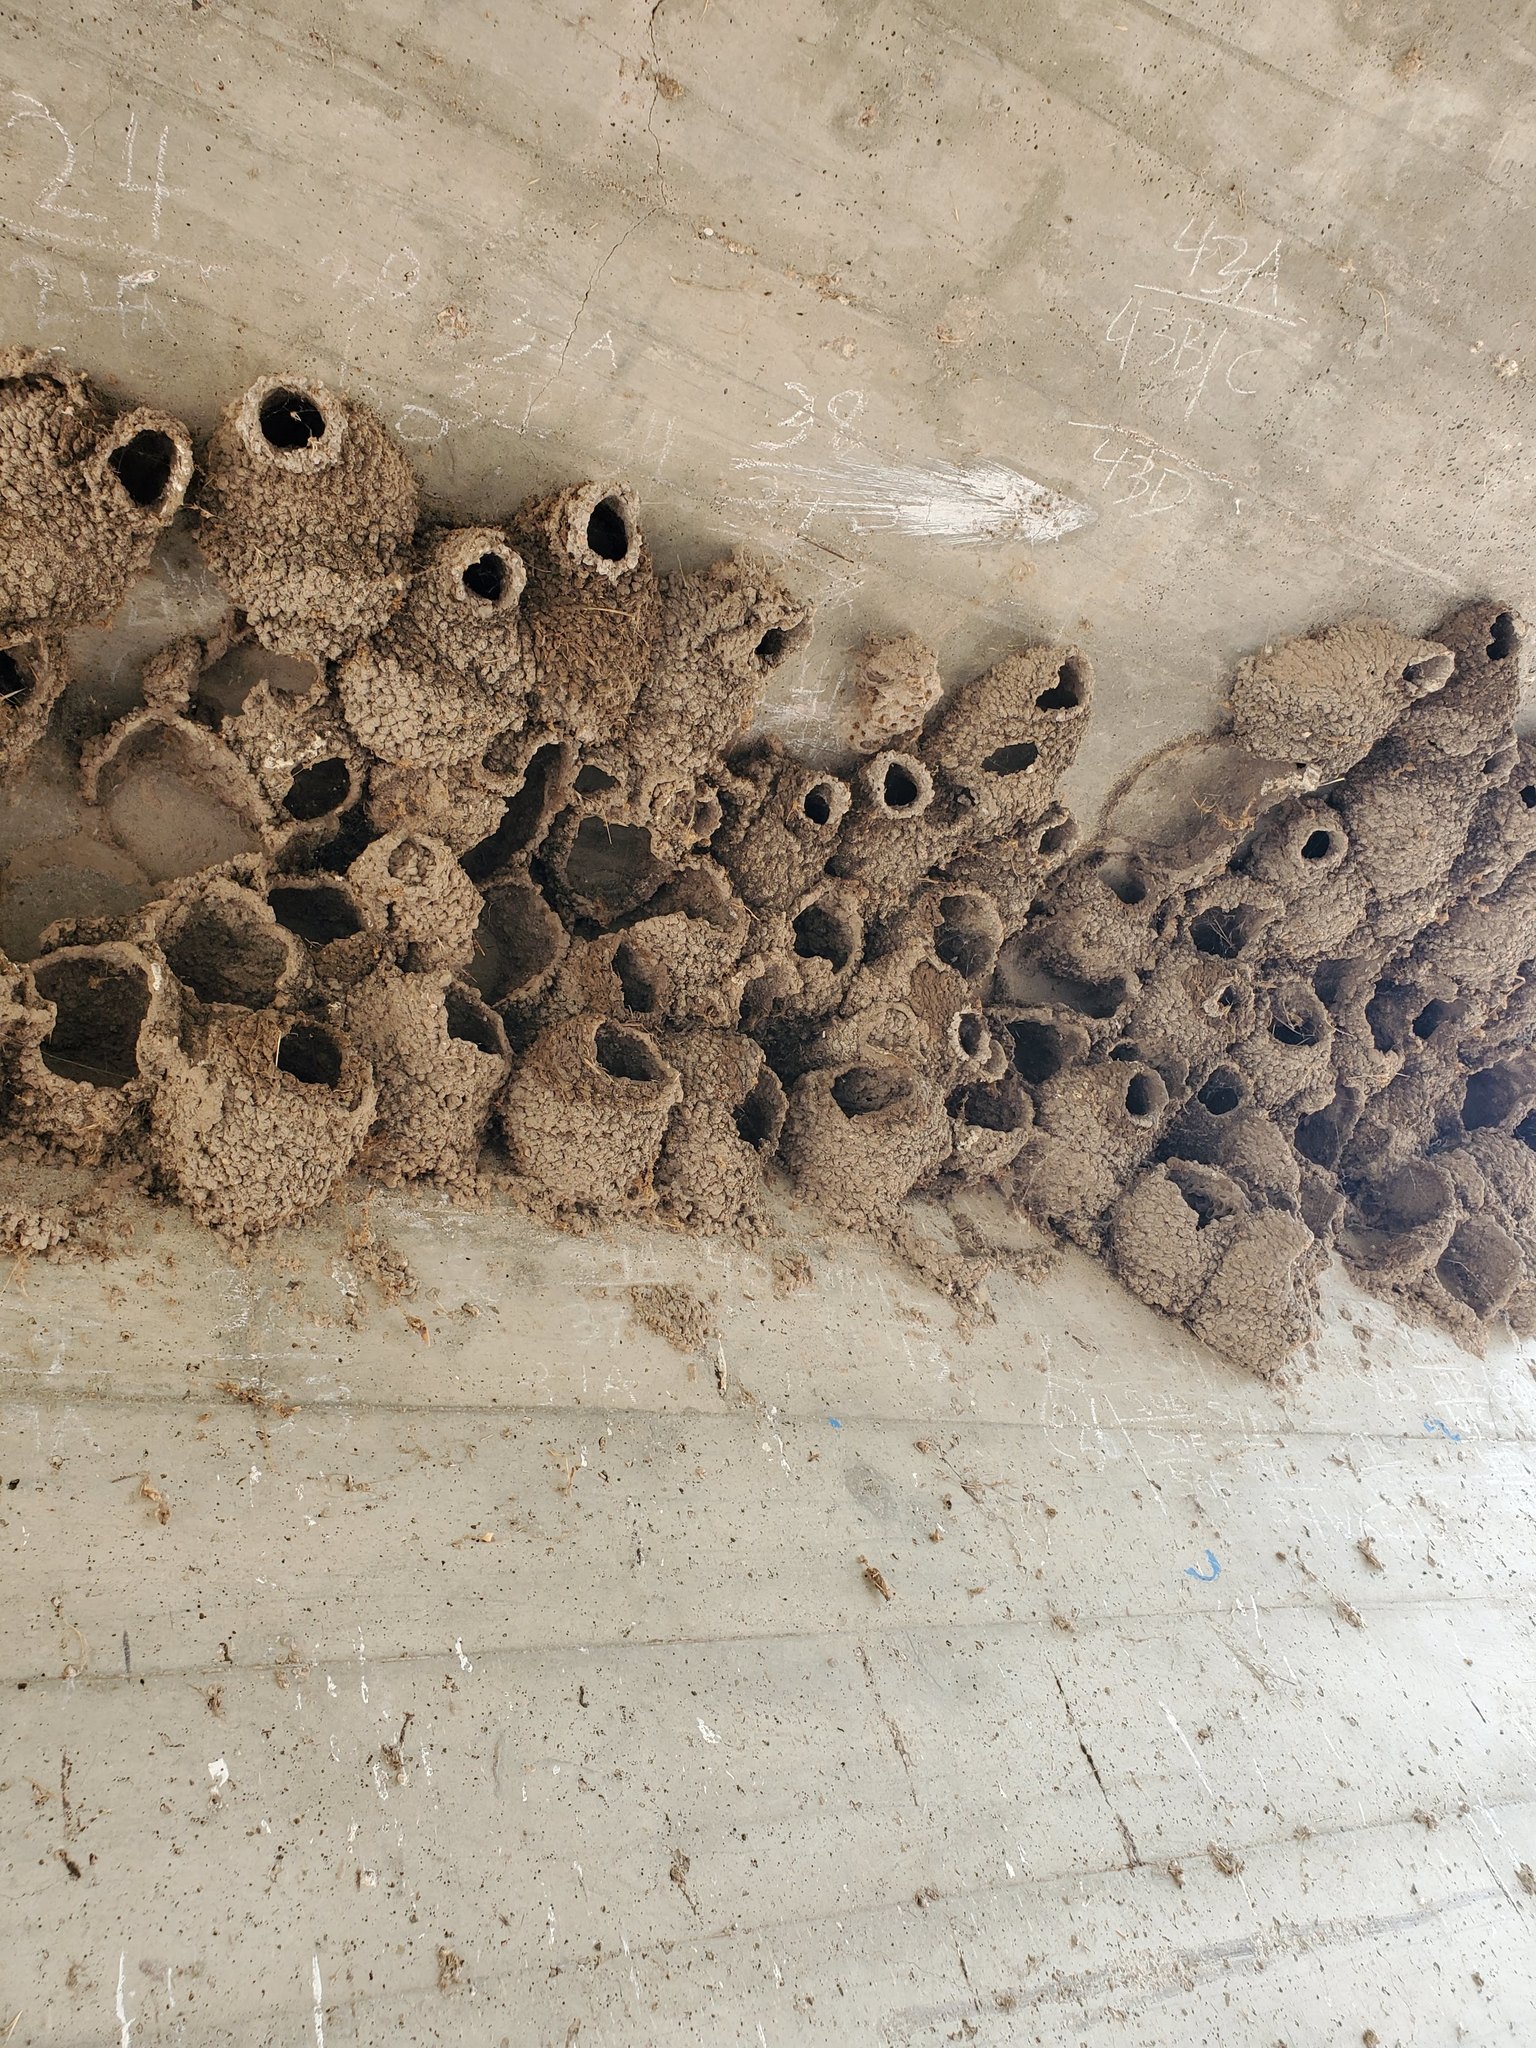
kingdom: Animalia
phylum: Chordata
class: Aves
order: Passeriformes
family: Hirundinidae
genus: Petrochelidon
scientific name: Petrochelidon pyrrhonota
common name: American cliff swallow
